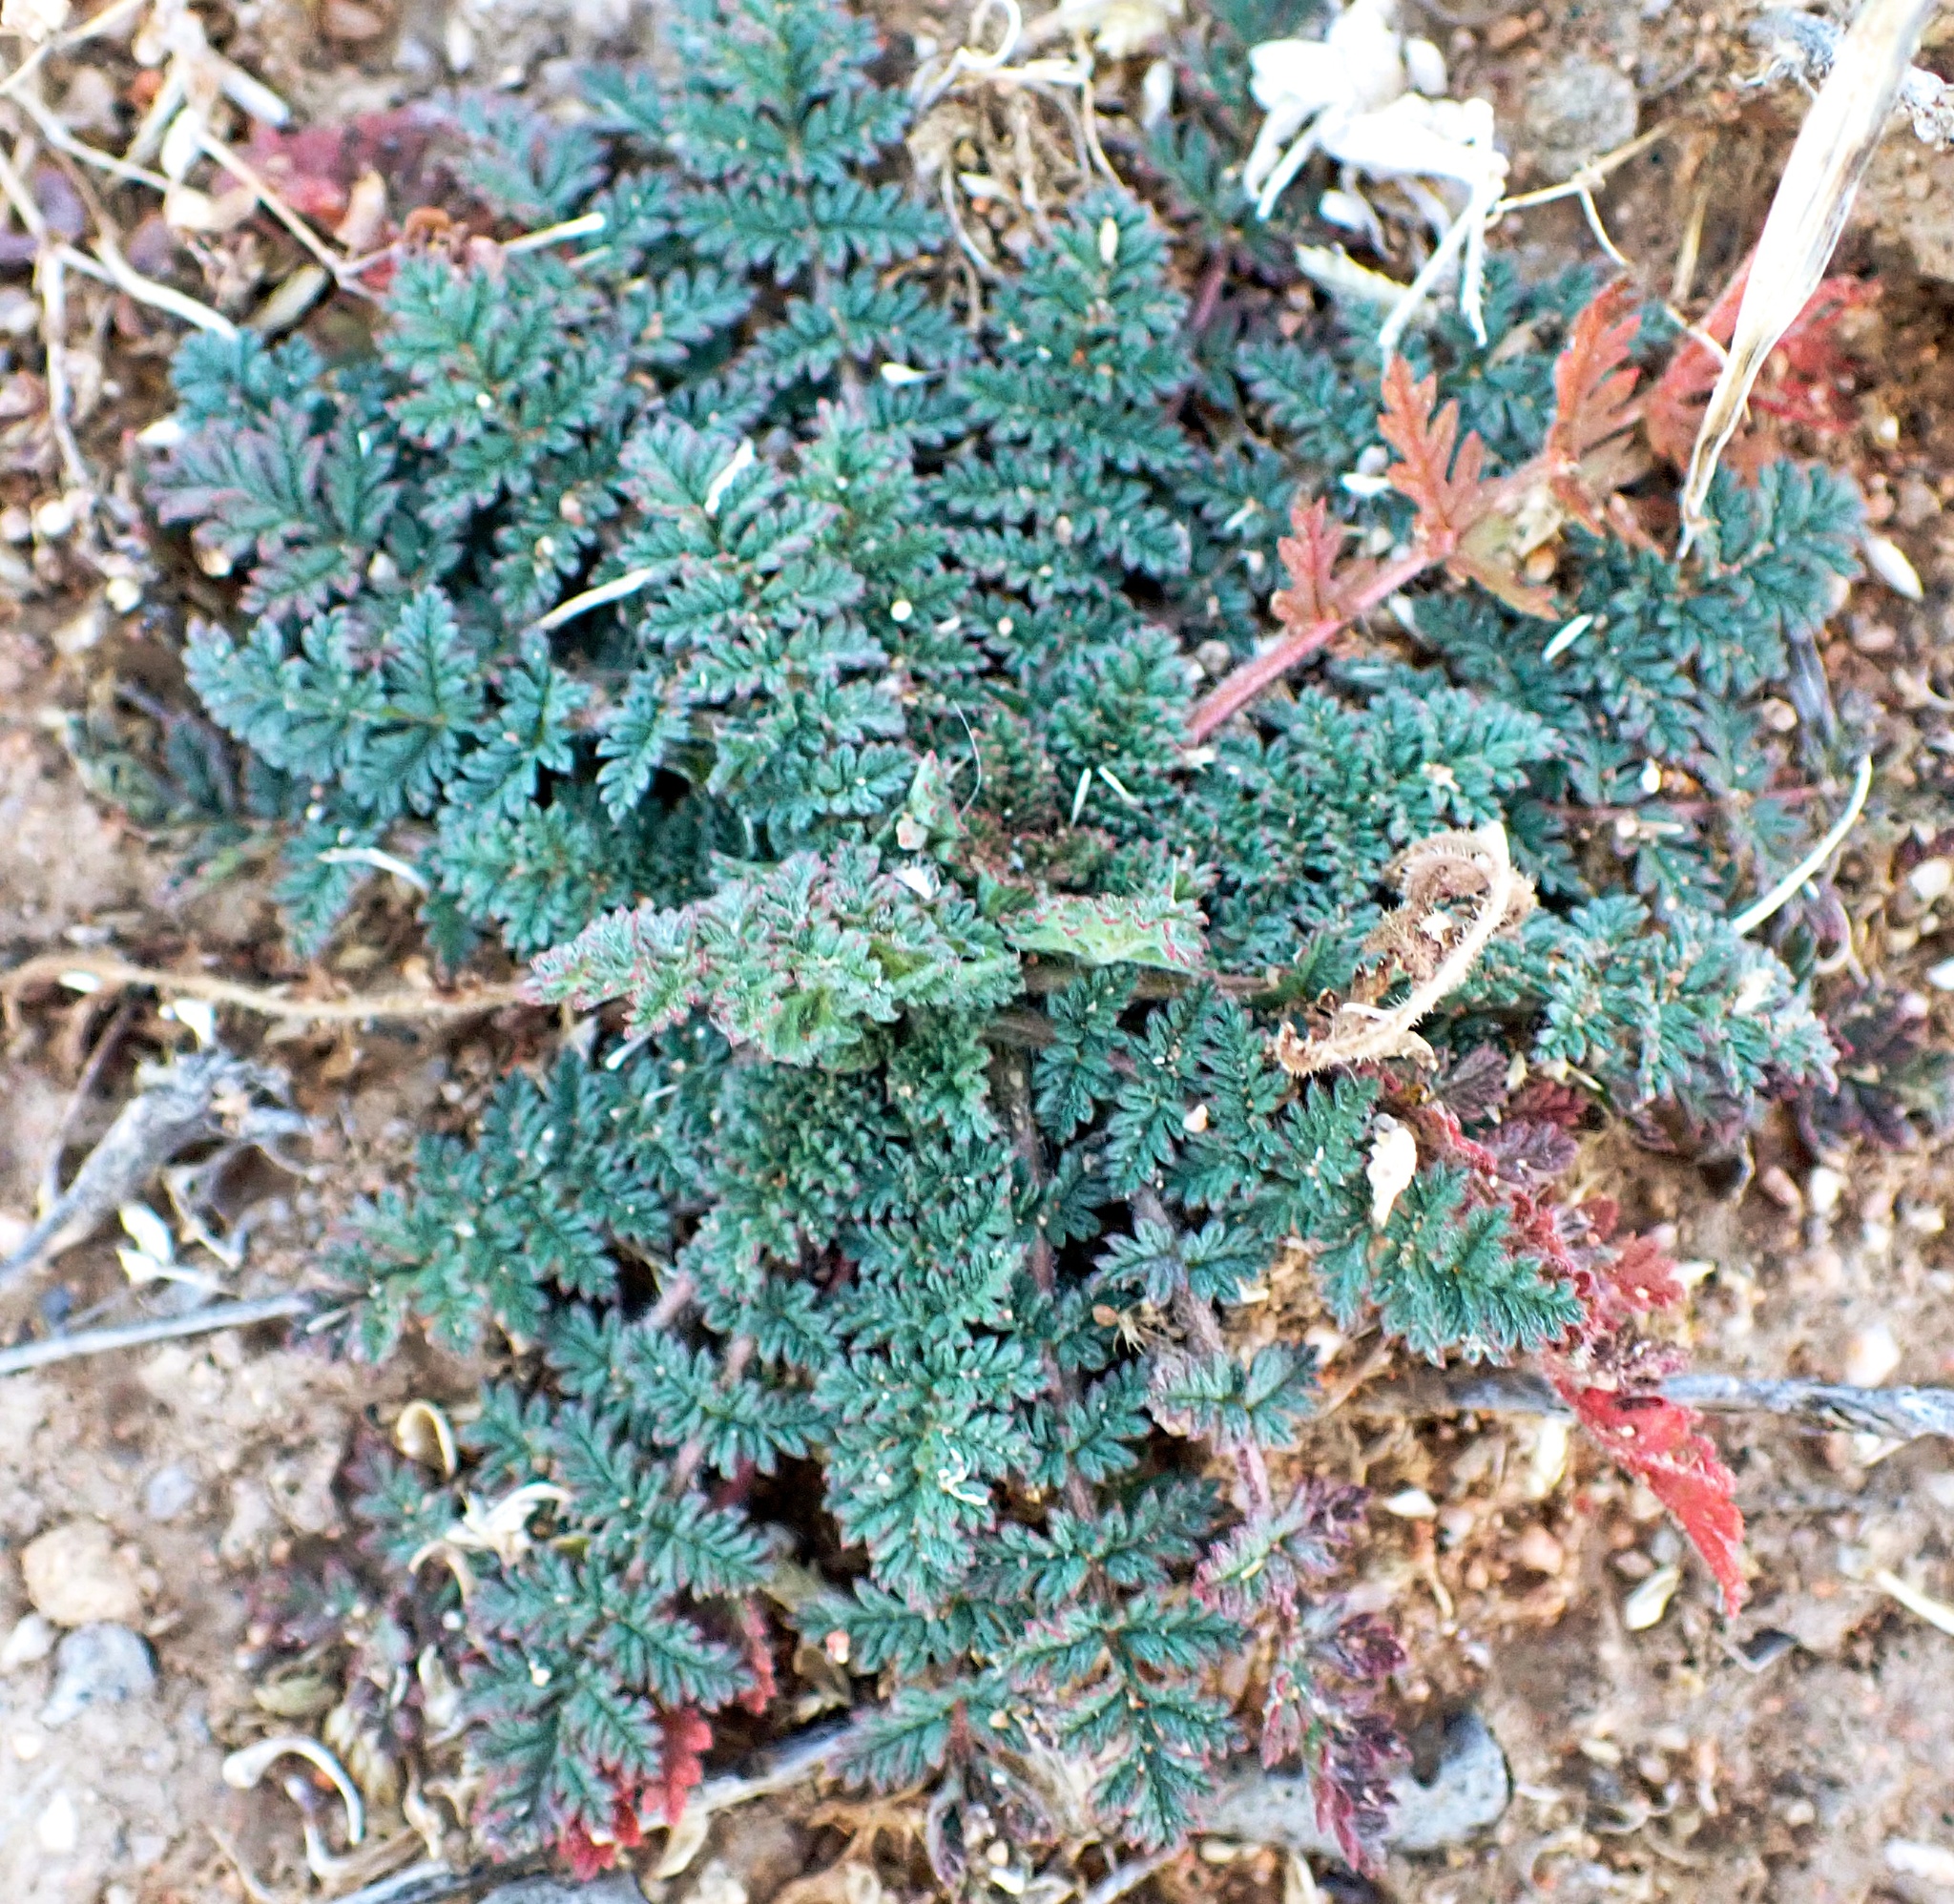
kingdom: Plantae
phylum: Tracheophyta
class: Magnoliopsida
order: Geraniales
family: Geraniaceae
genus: Erodium
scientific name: Erodium cicutarium
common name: Common stork's-bill
